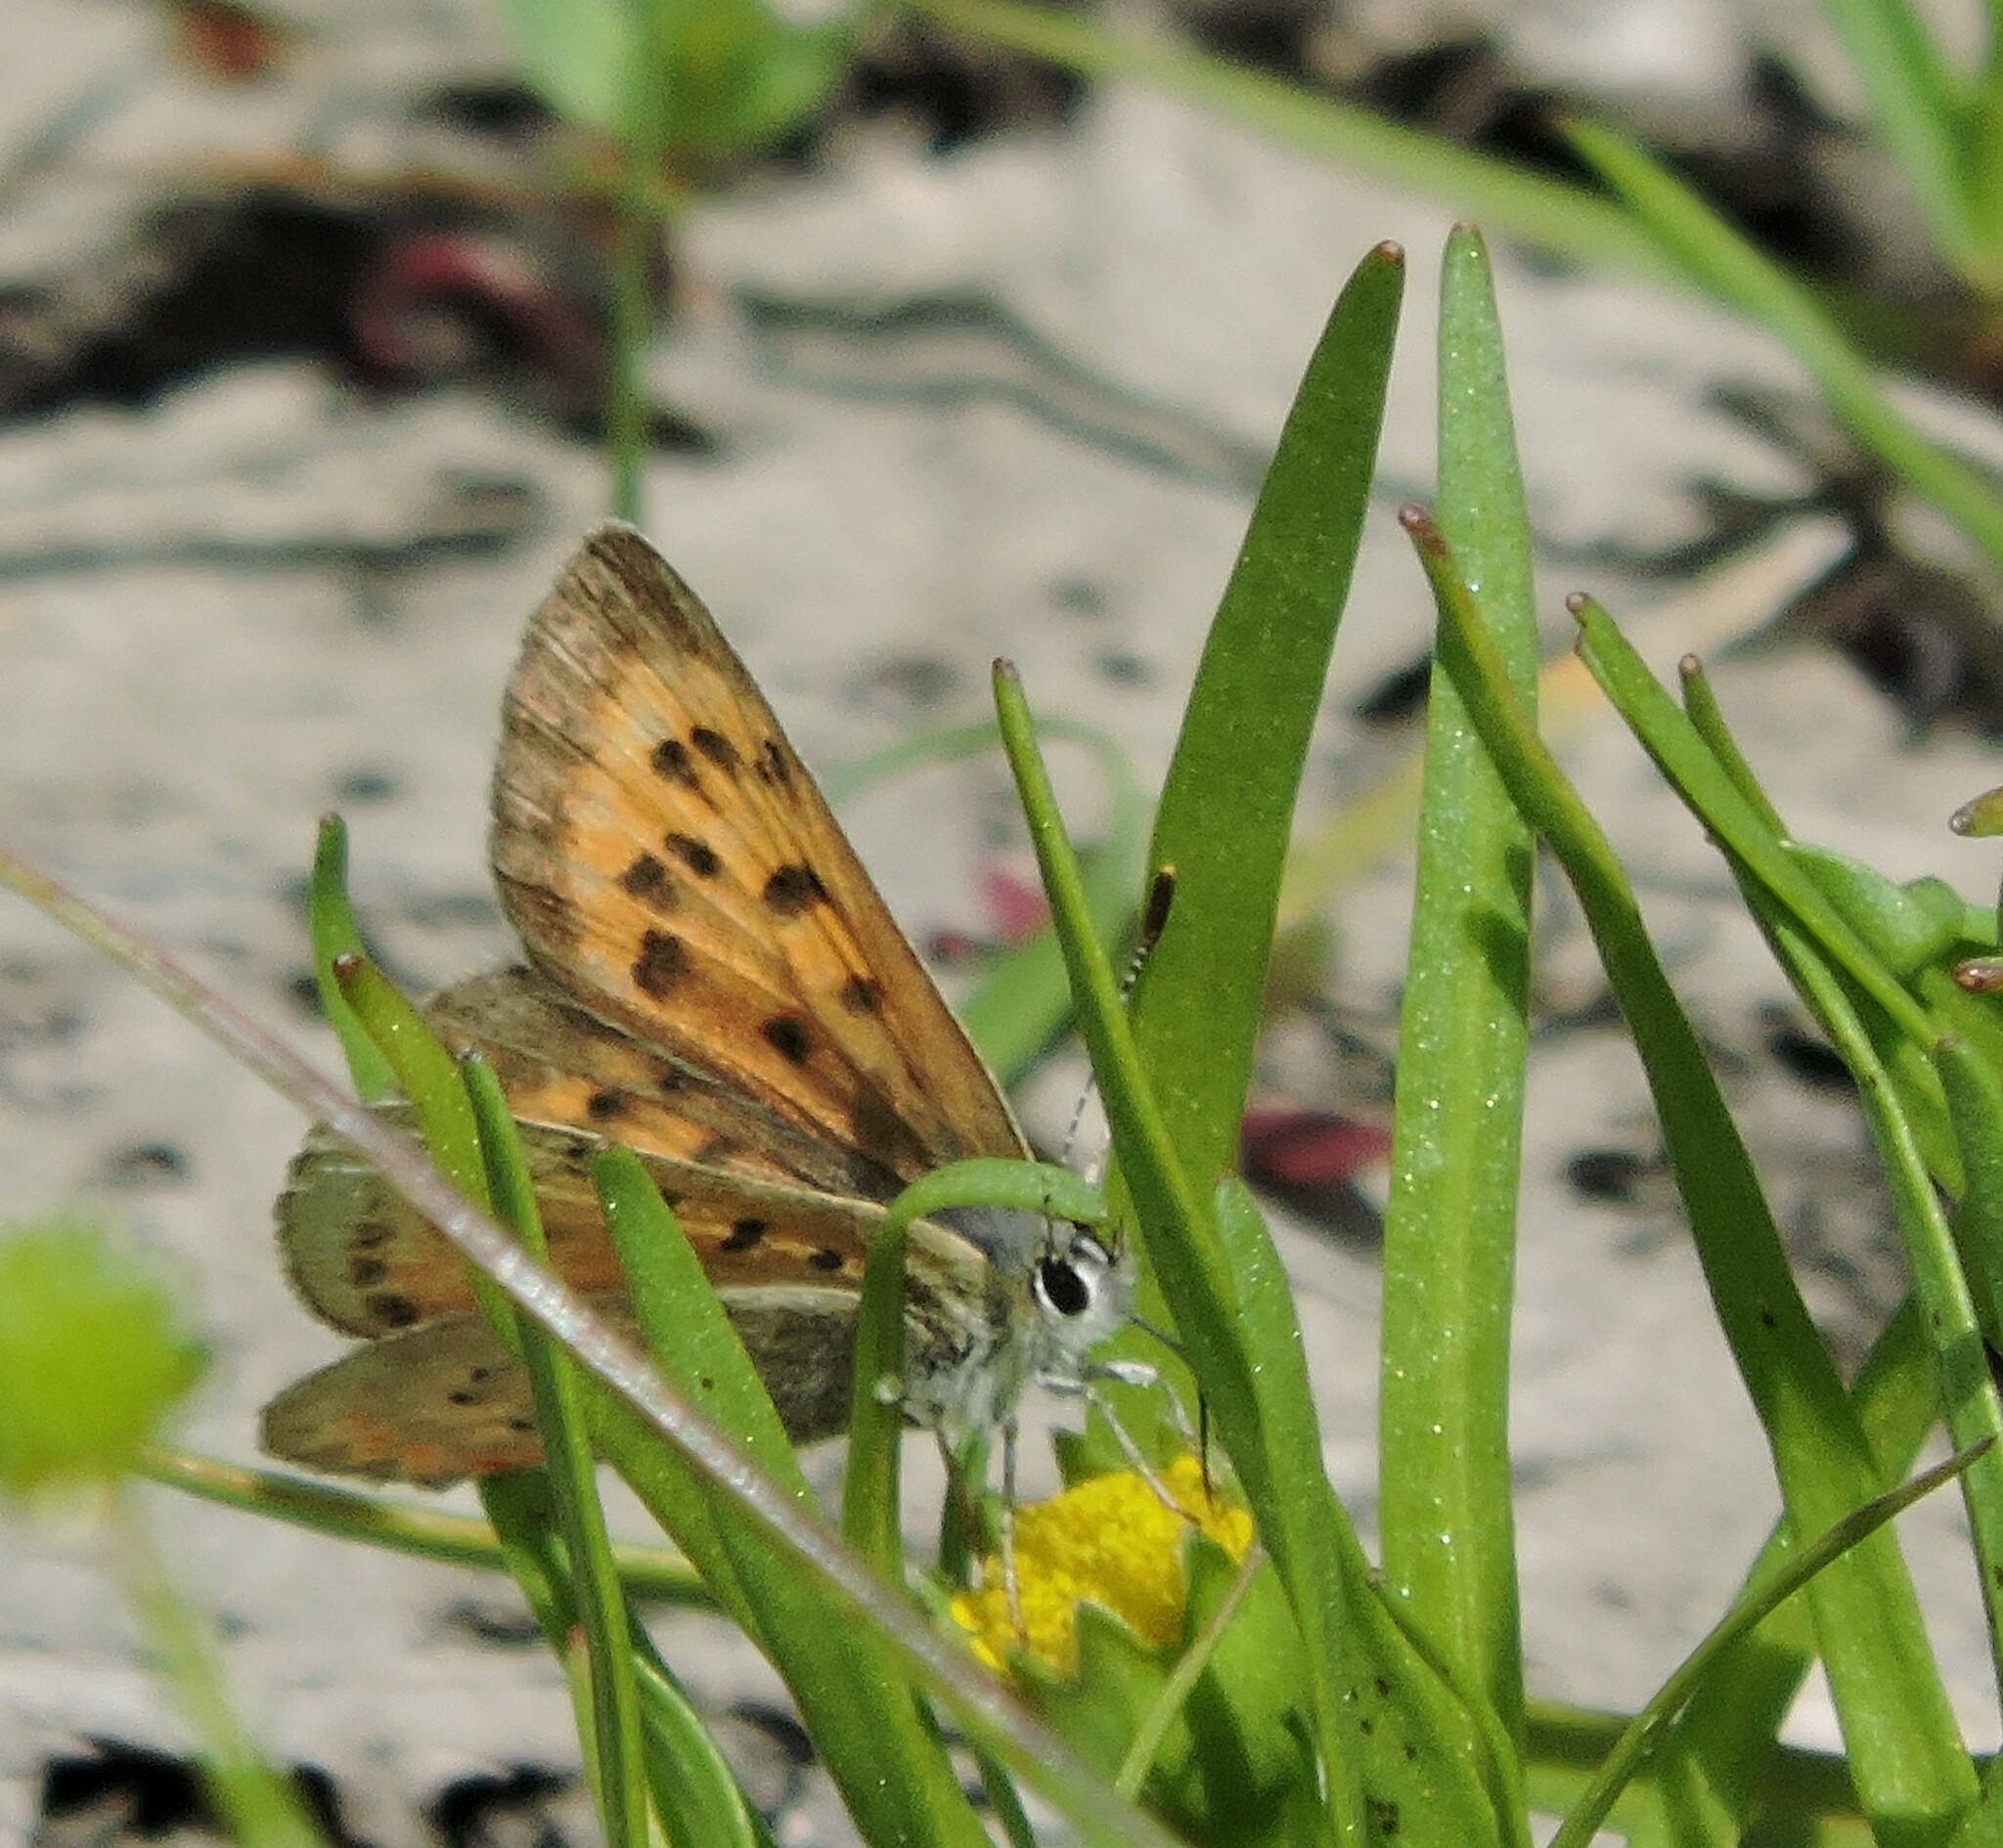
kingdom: Animalia
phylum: Arthropoda
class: Insecta
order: Lepidoptera
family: Lycaenidae
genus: Tharsalea
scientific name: Tharsalea helloides
